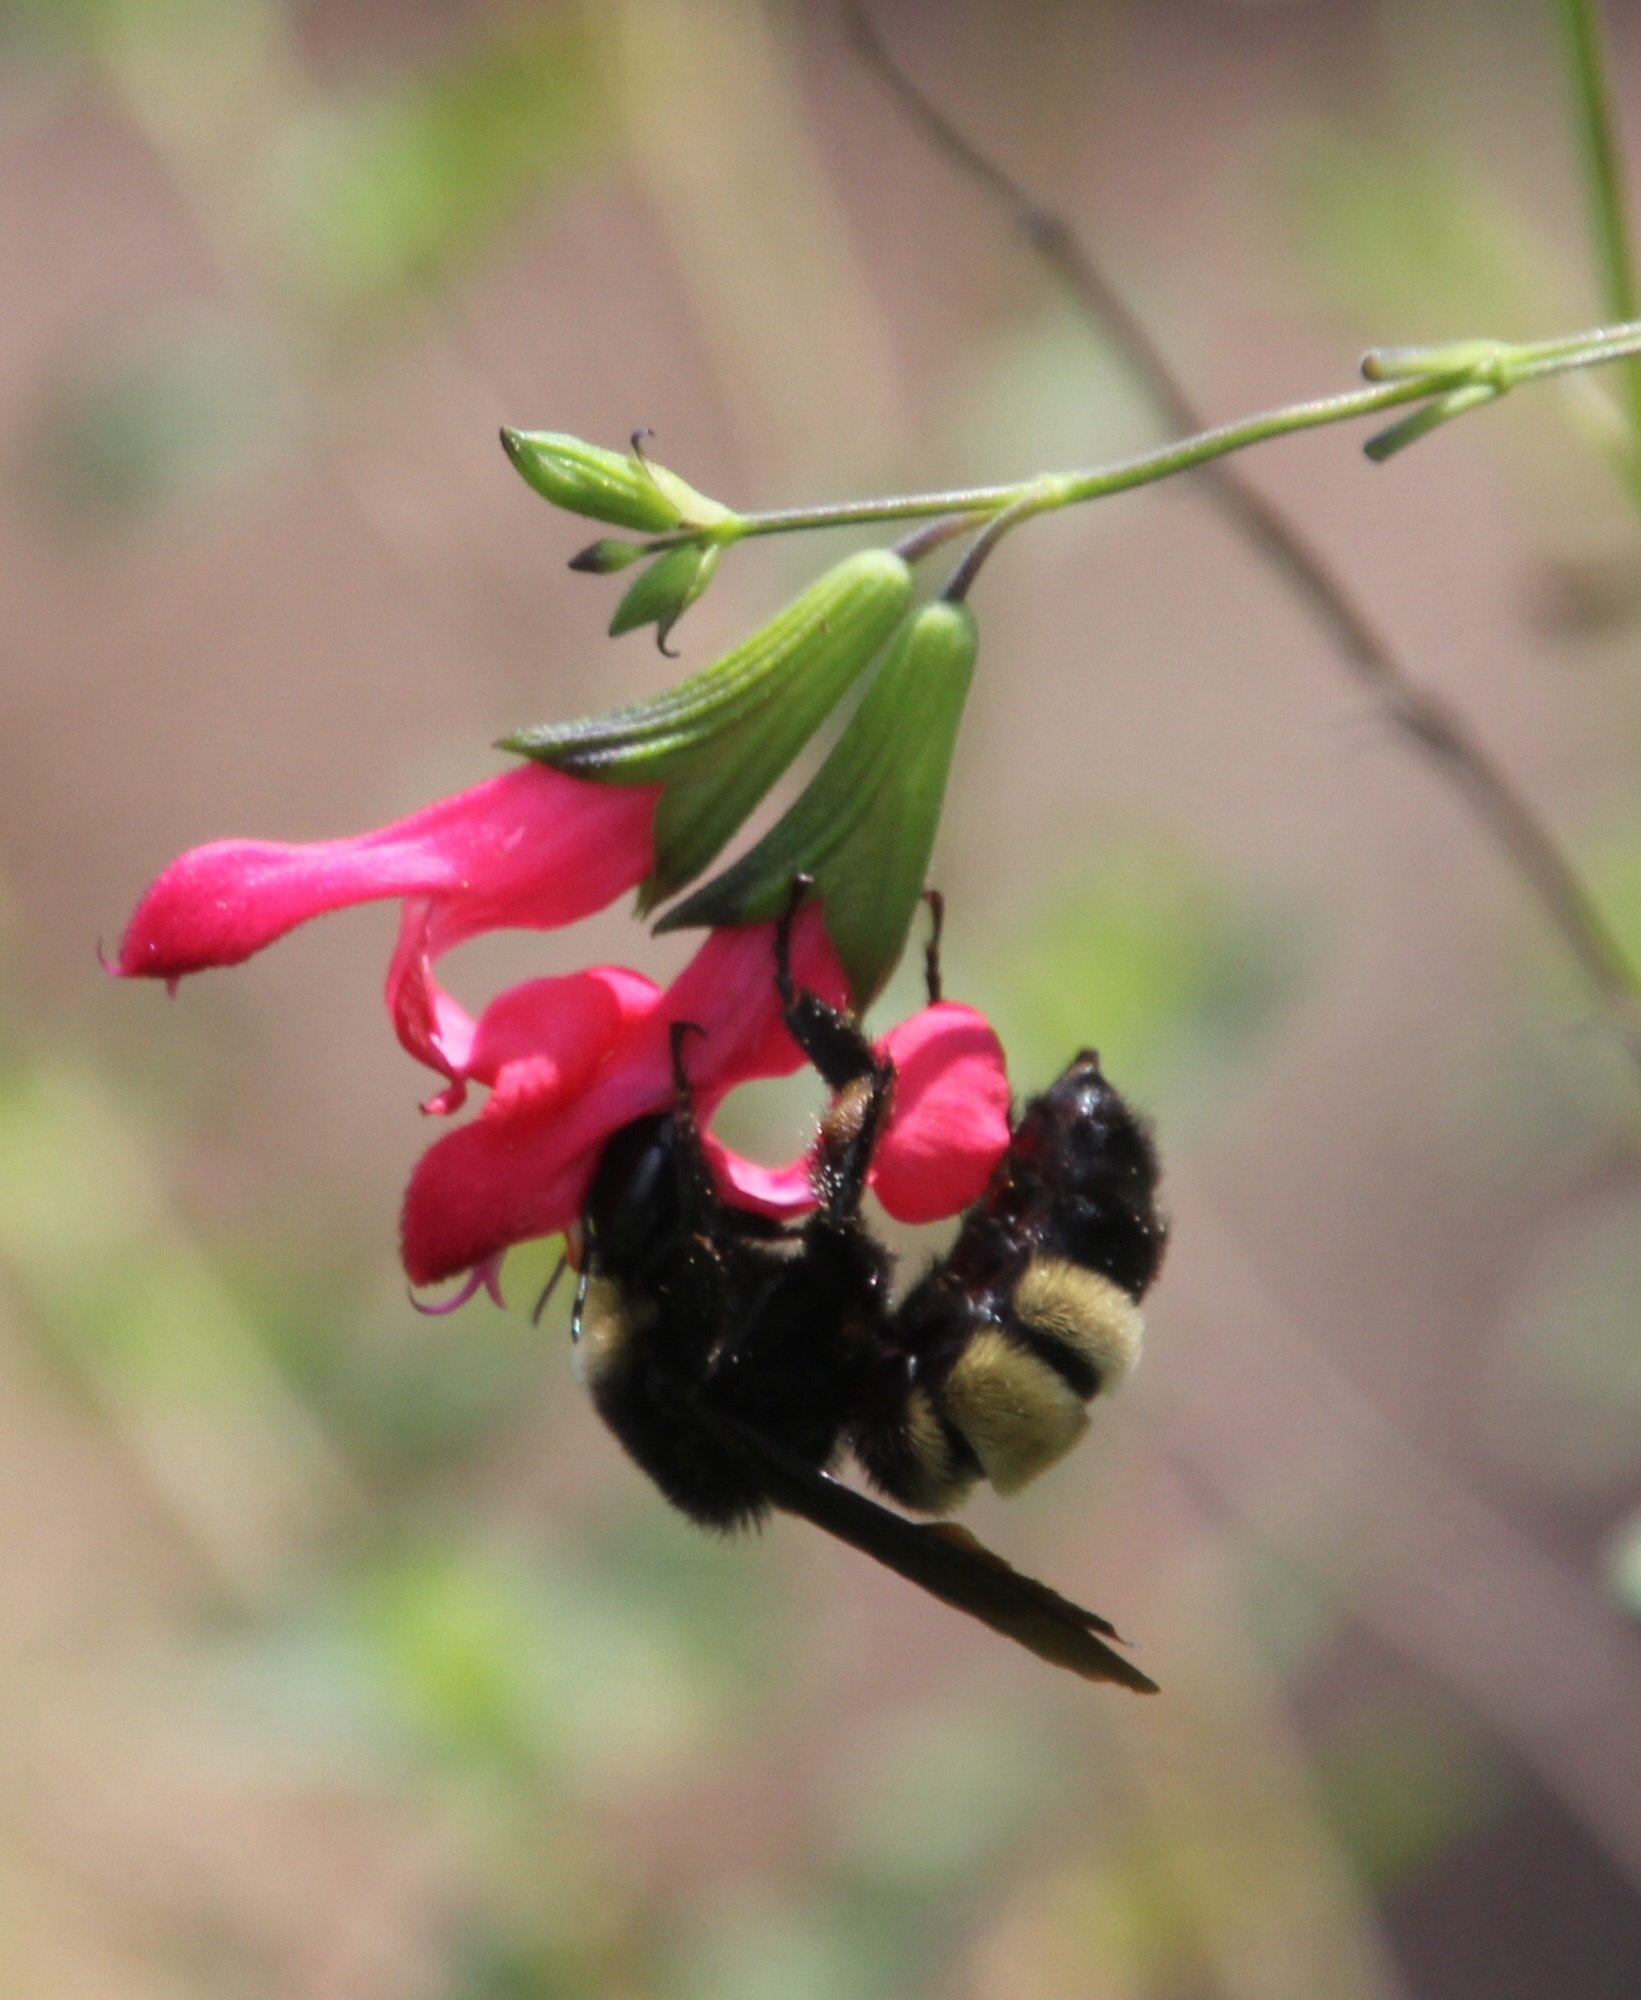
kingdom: Animalia
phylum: Arthropoda
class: Insecta
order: Hymenoptera
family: Apidae
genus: Bombus
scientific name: Bombus pensylvanicus
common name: Bumble bee
